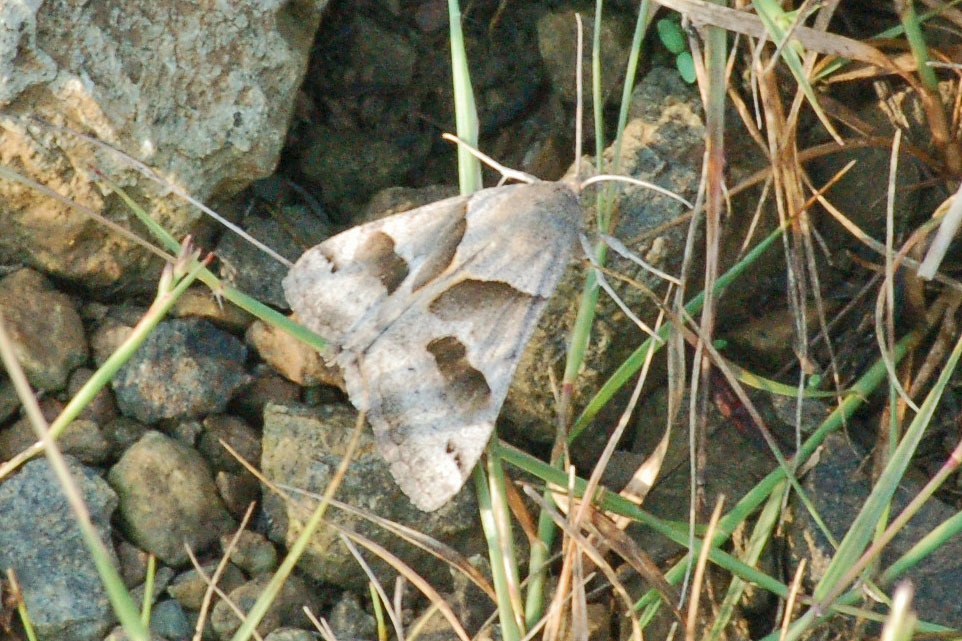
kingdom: Animalia
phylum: Arthropoda
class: Insecta
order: Lepidoptera
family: Erebidae
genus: Caenurgina
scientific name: Caenurgina erechtea
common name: Forage looper moth
